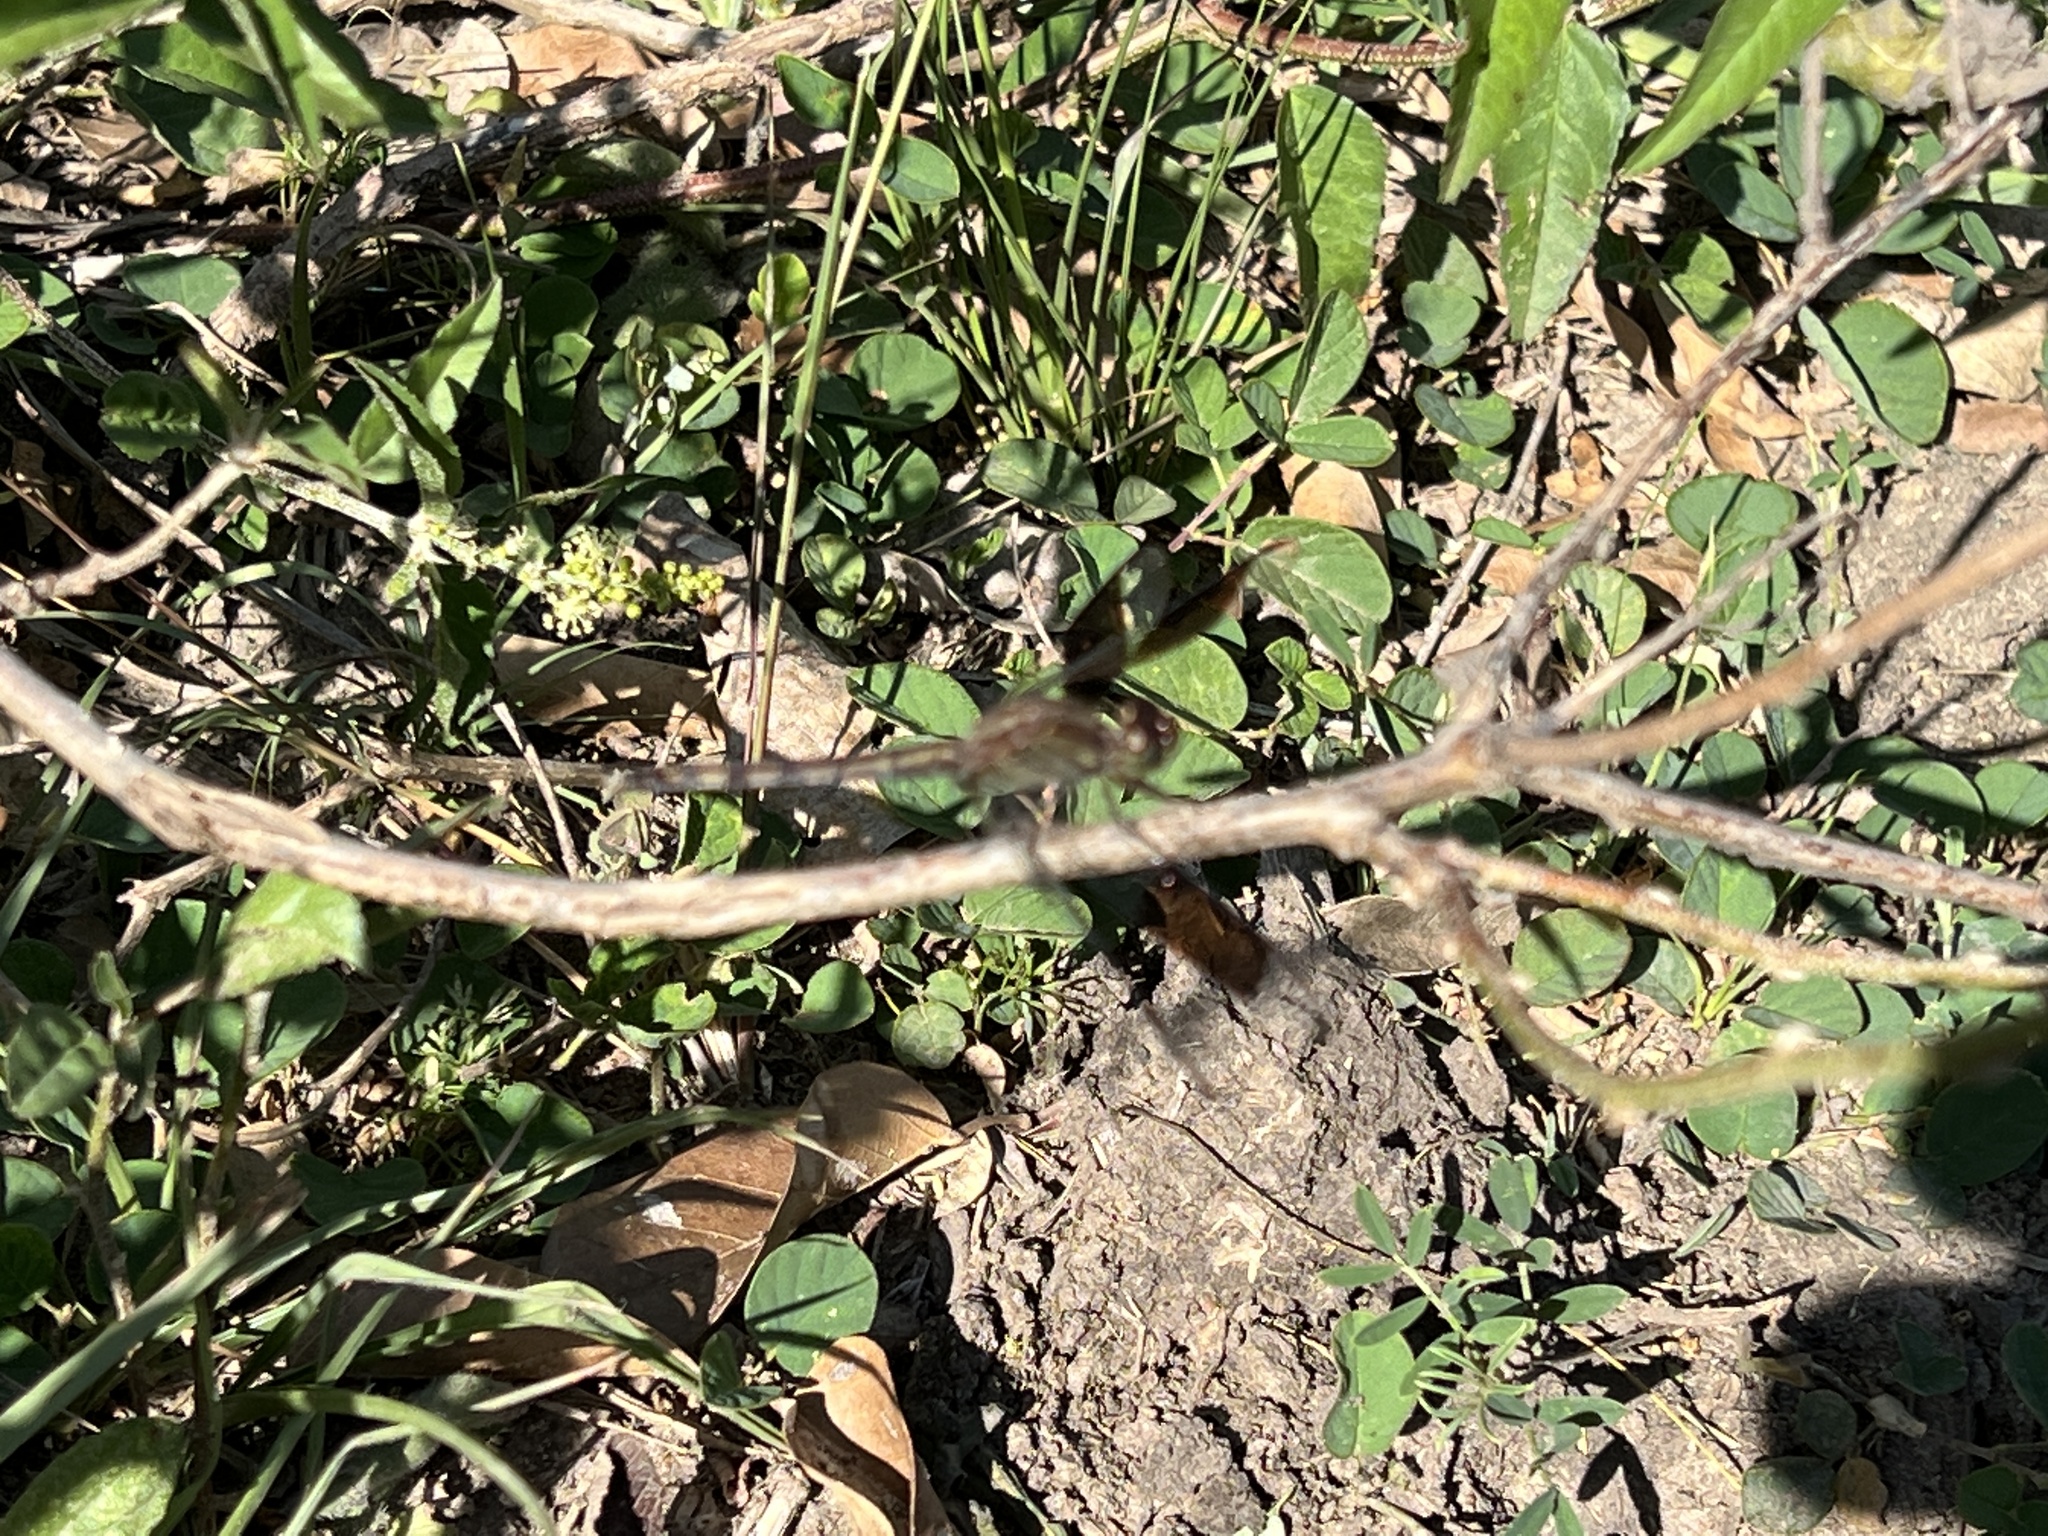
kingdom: Animalia
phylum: Arthropoda
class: Insecta
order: Odonata
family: Libellulidae
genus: Erythrodiplax
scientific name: Erythrodiplax umbrata
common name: Band-winged dragonlet
